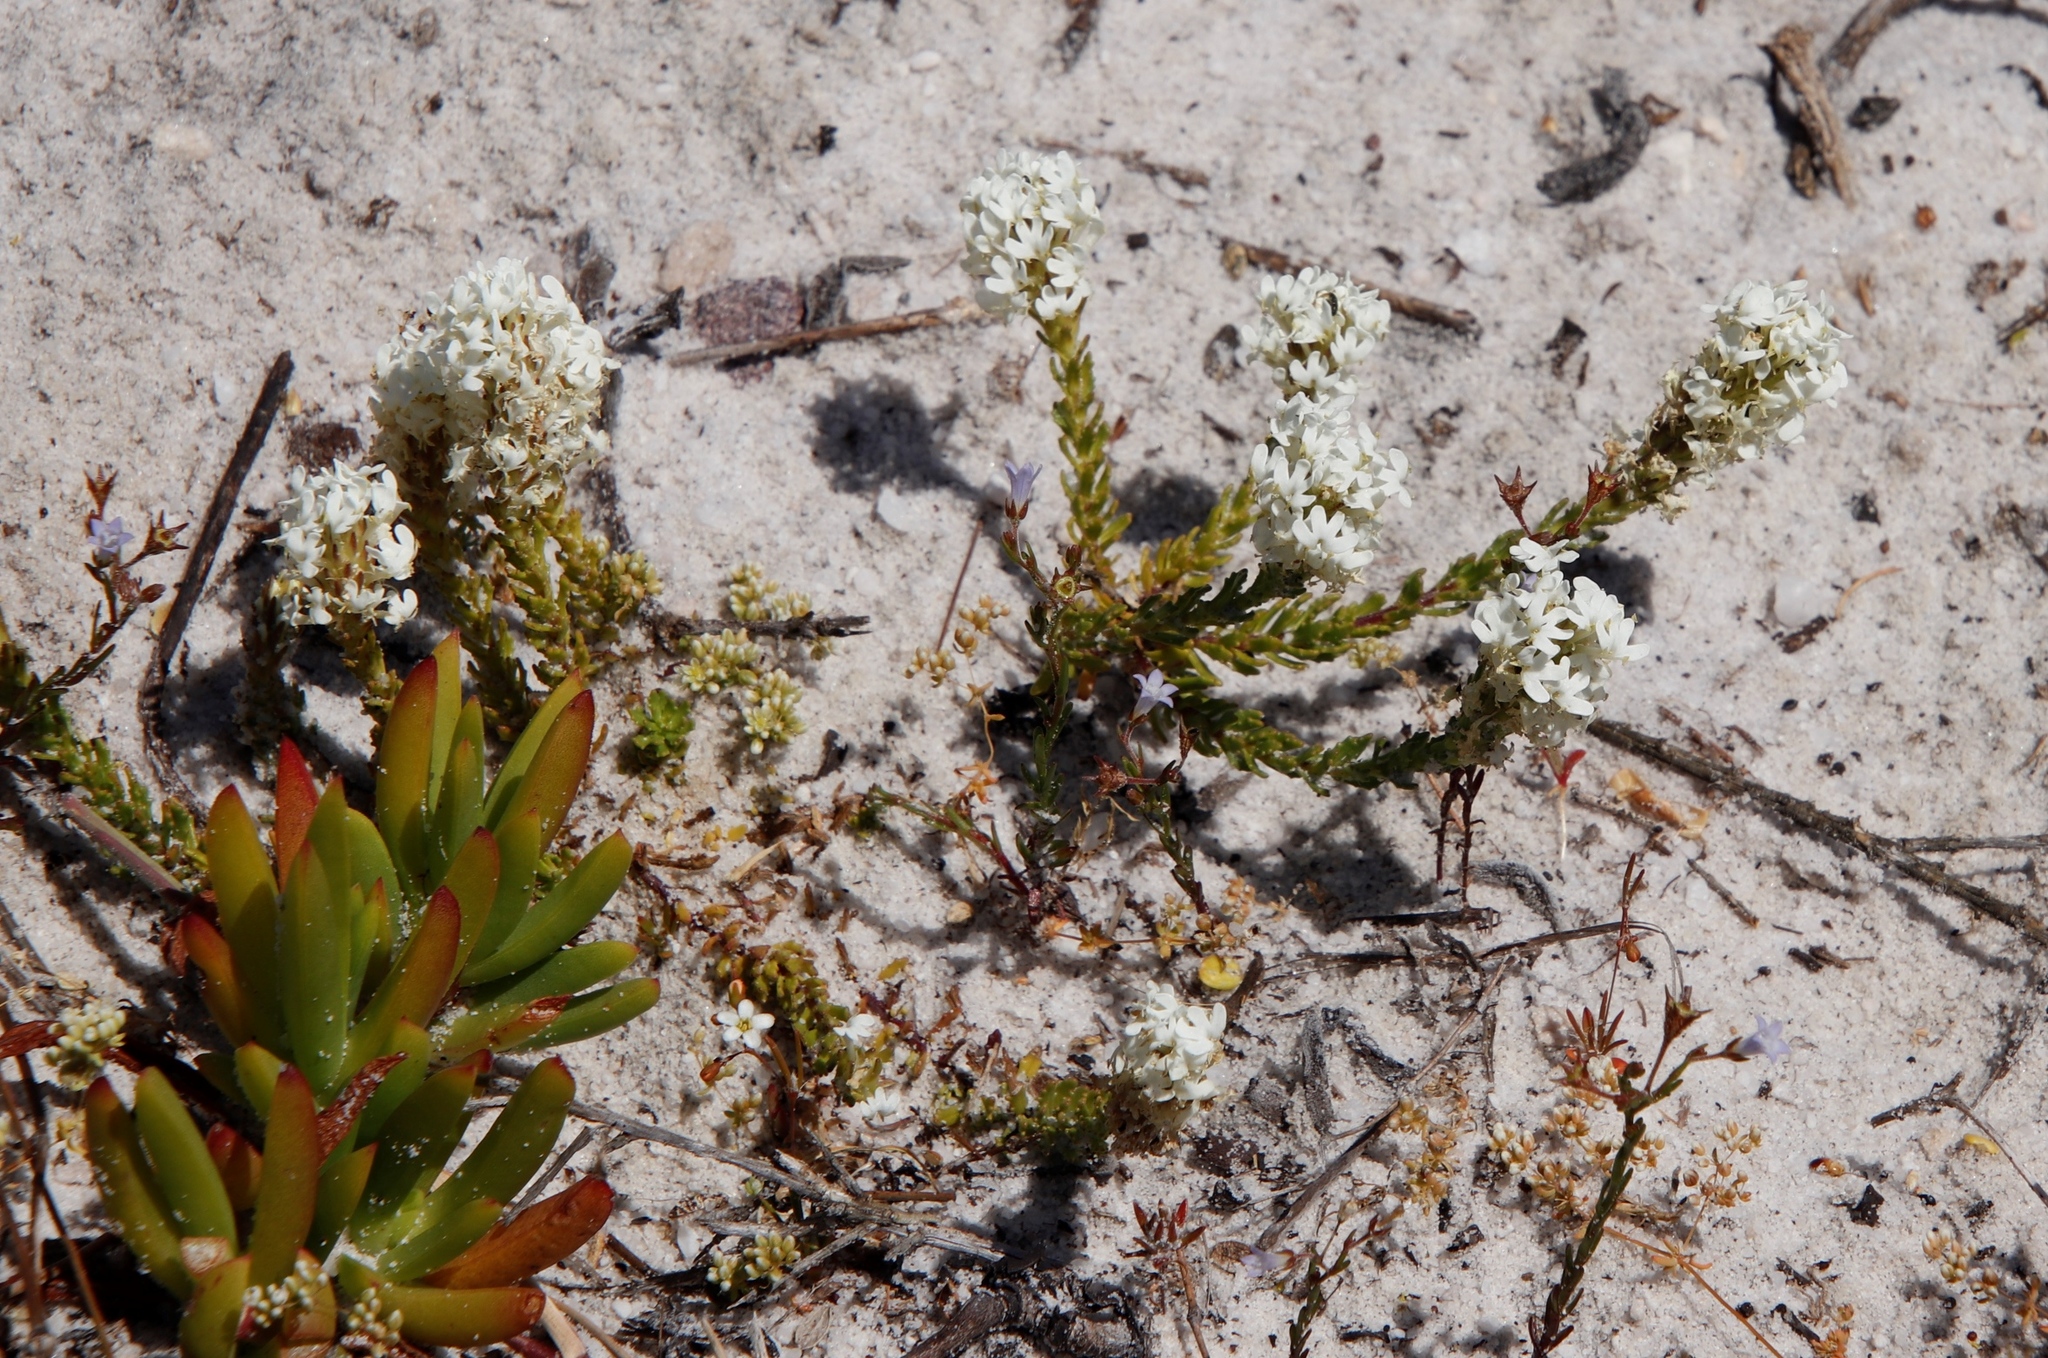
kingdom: Plantae
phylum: Tracheophyta
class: Magnoliopsida
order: Lamiales
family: Scrophulariaceae
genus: Dischisma
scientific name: Dischisma ciliatum
